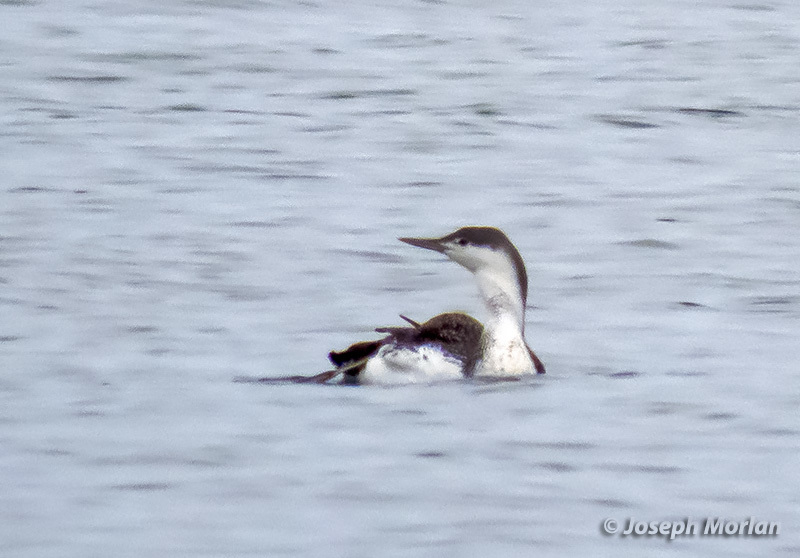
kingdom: Animalia
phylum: Chordata
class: Aves
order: Gaviiformes
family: Gaviidae
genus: Gavia
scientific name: Gavia stellata
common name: Red-throated loon
